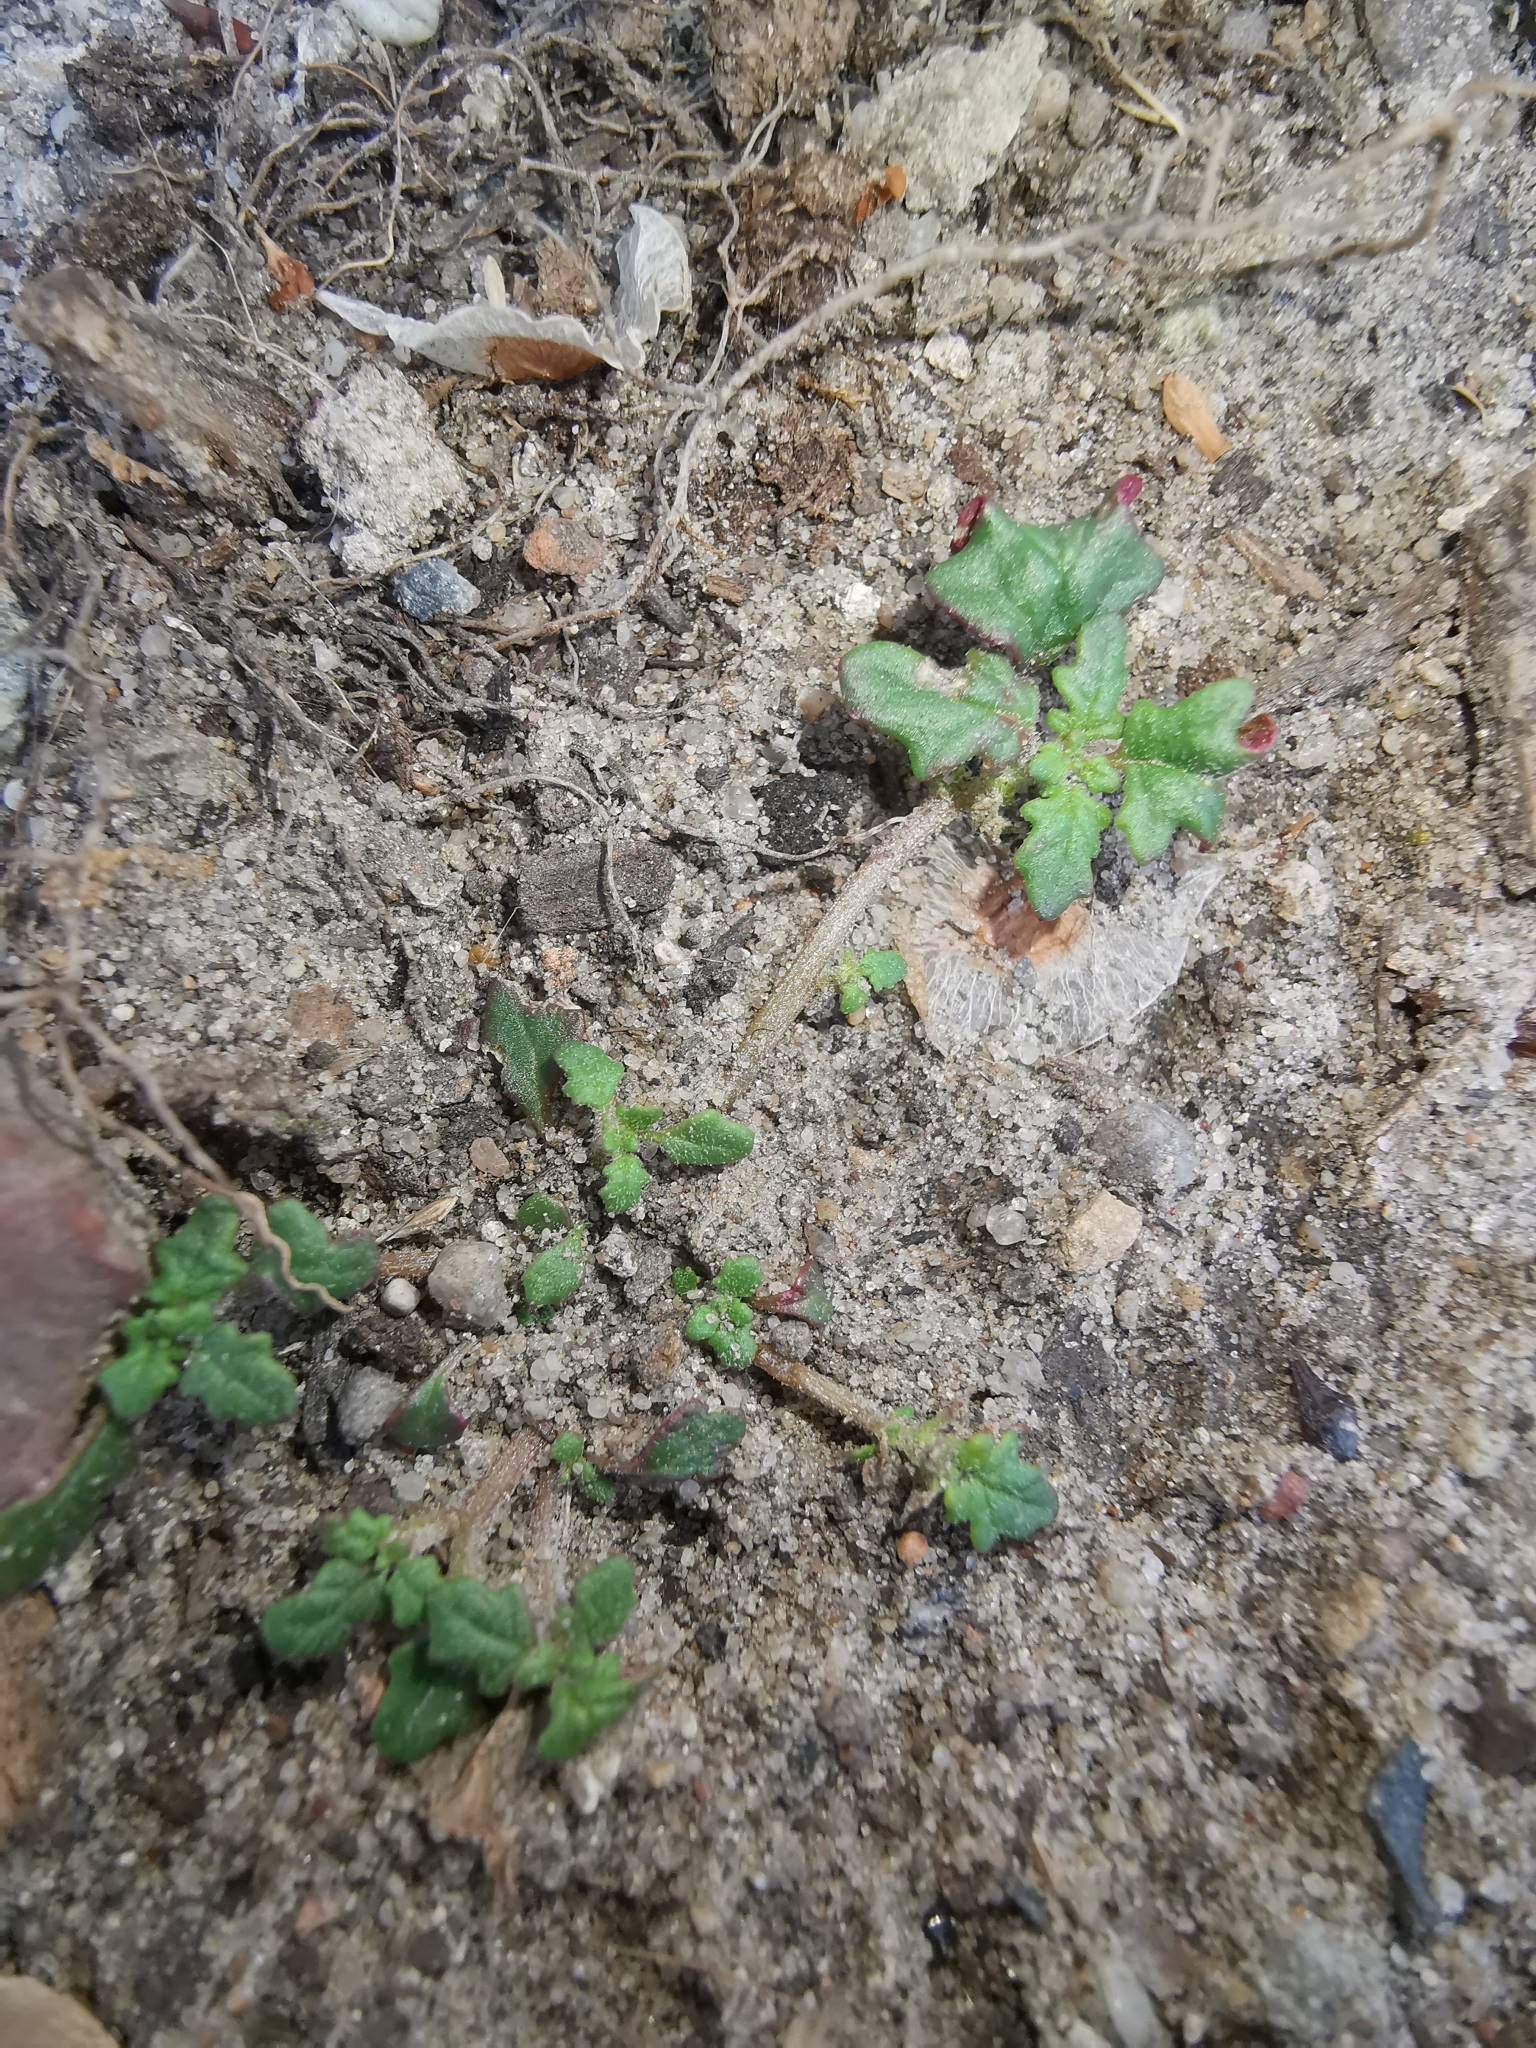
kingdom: Plantae
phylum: Tracheophyta
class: Magnoliopsida
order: Caryophyllales
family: Amaranthaceae
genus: Dysphania
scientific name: Dysphania pumilio
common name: Clammy goosefoot
